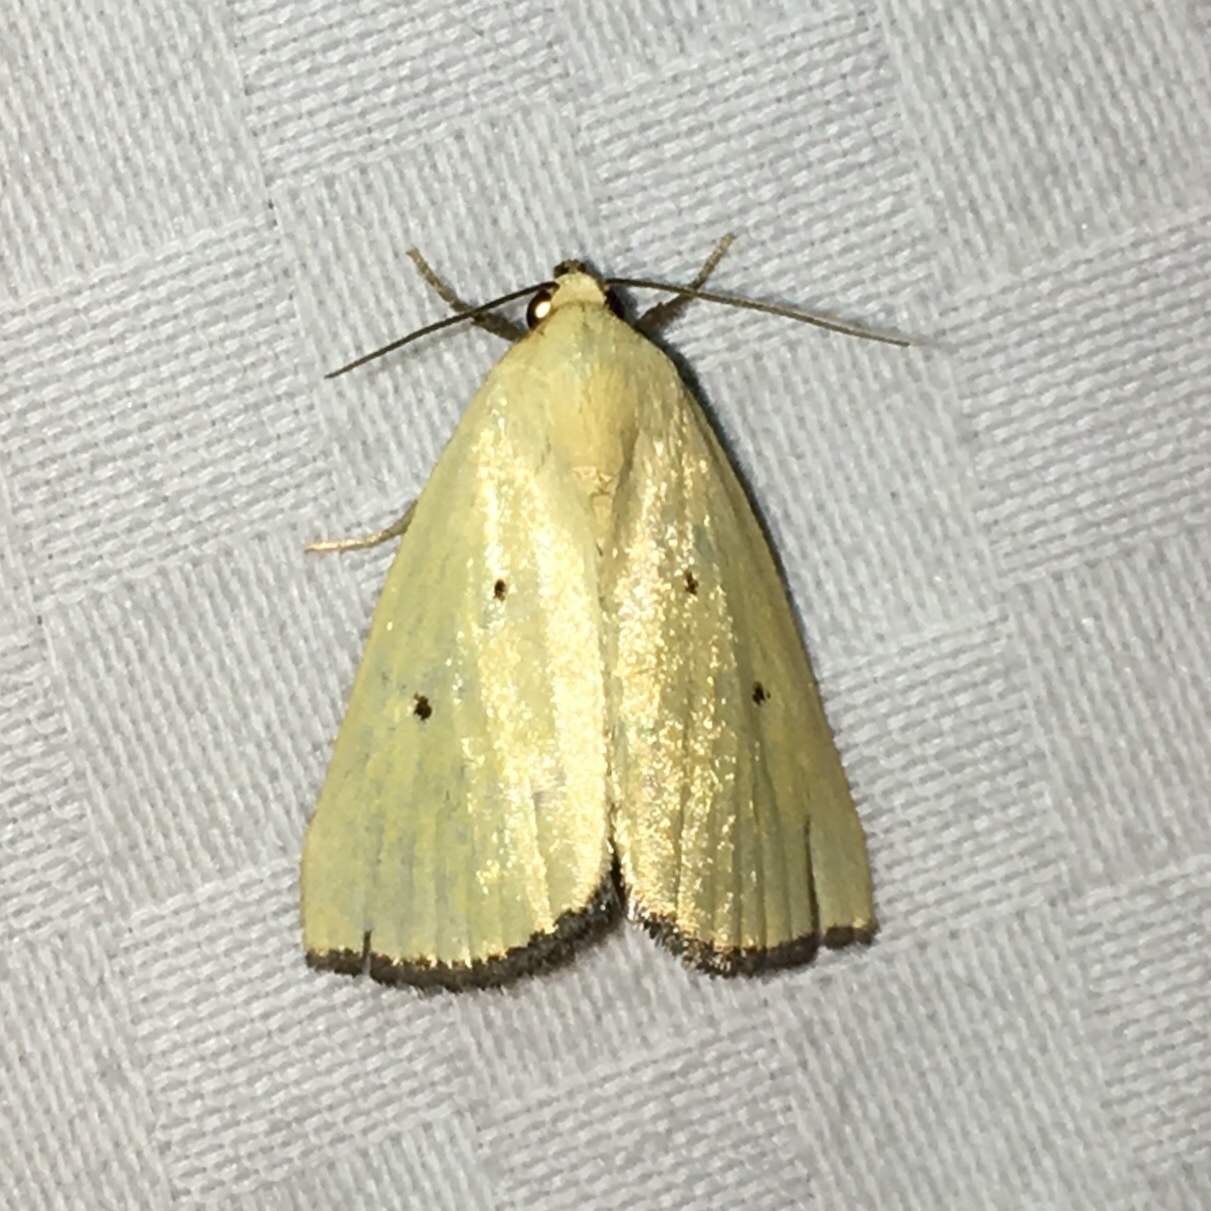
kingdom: Animalia
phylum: Arthropoda
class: Insecta
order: Lepidoptera
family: Noctuidae
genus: Marimatha
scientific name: Marimatha nigrofimbria
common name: Black-bordered lemon moth
